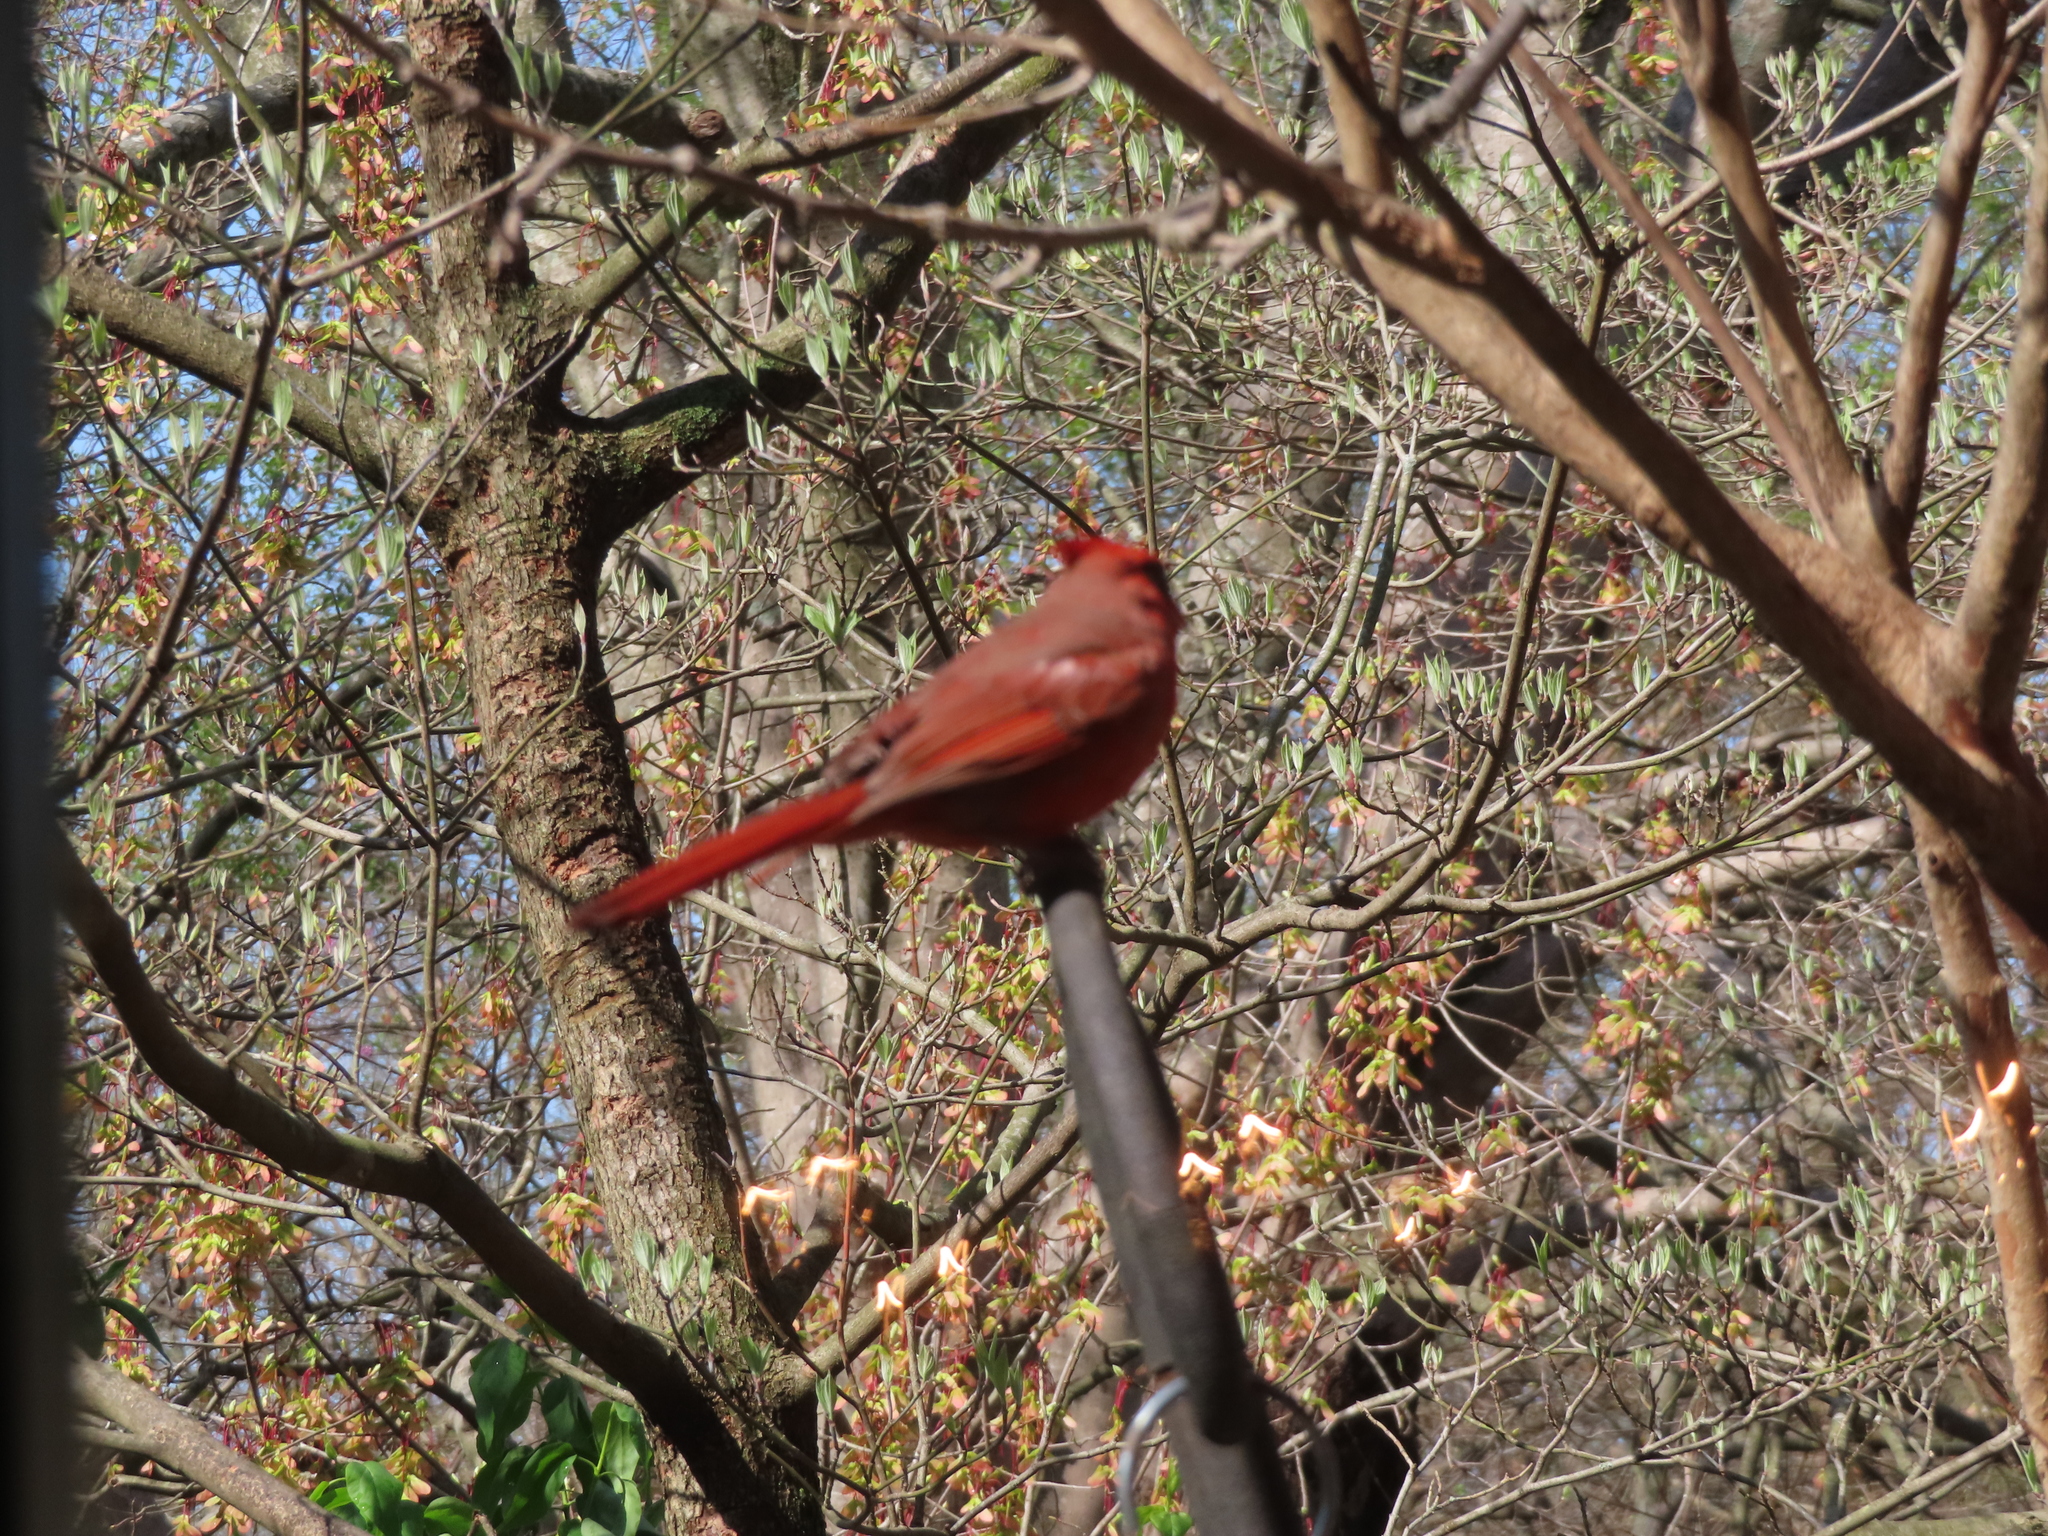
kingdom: Animalia
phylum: Chordata
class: Aves
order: Passeriformes
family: Cardinalidae
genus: Cardinalis
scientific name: Cardinalis cardinalis
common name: Northern cardinal
